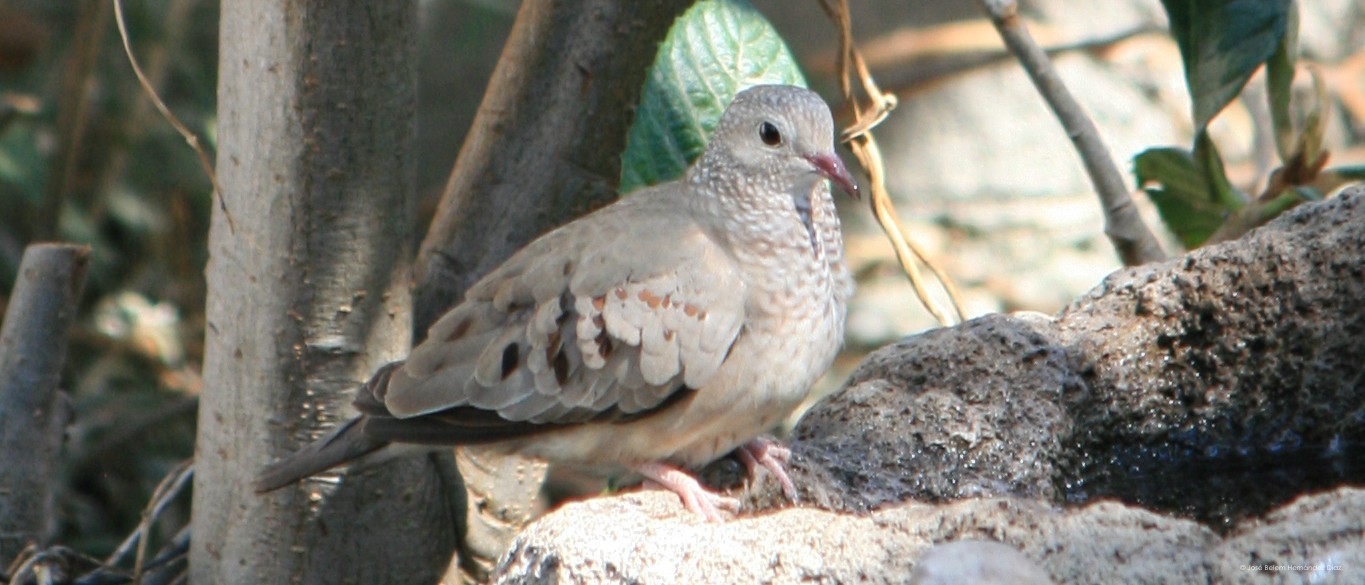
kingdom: Animalia
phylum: Chordata
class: Aves
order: Columbiformes
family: Columbidae
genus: Columbina
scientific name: Columbina passerina
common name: Common ground-dove
